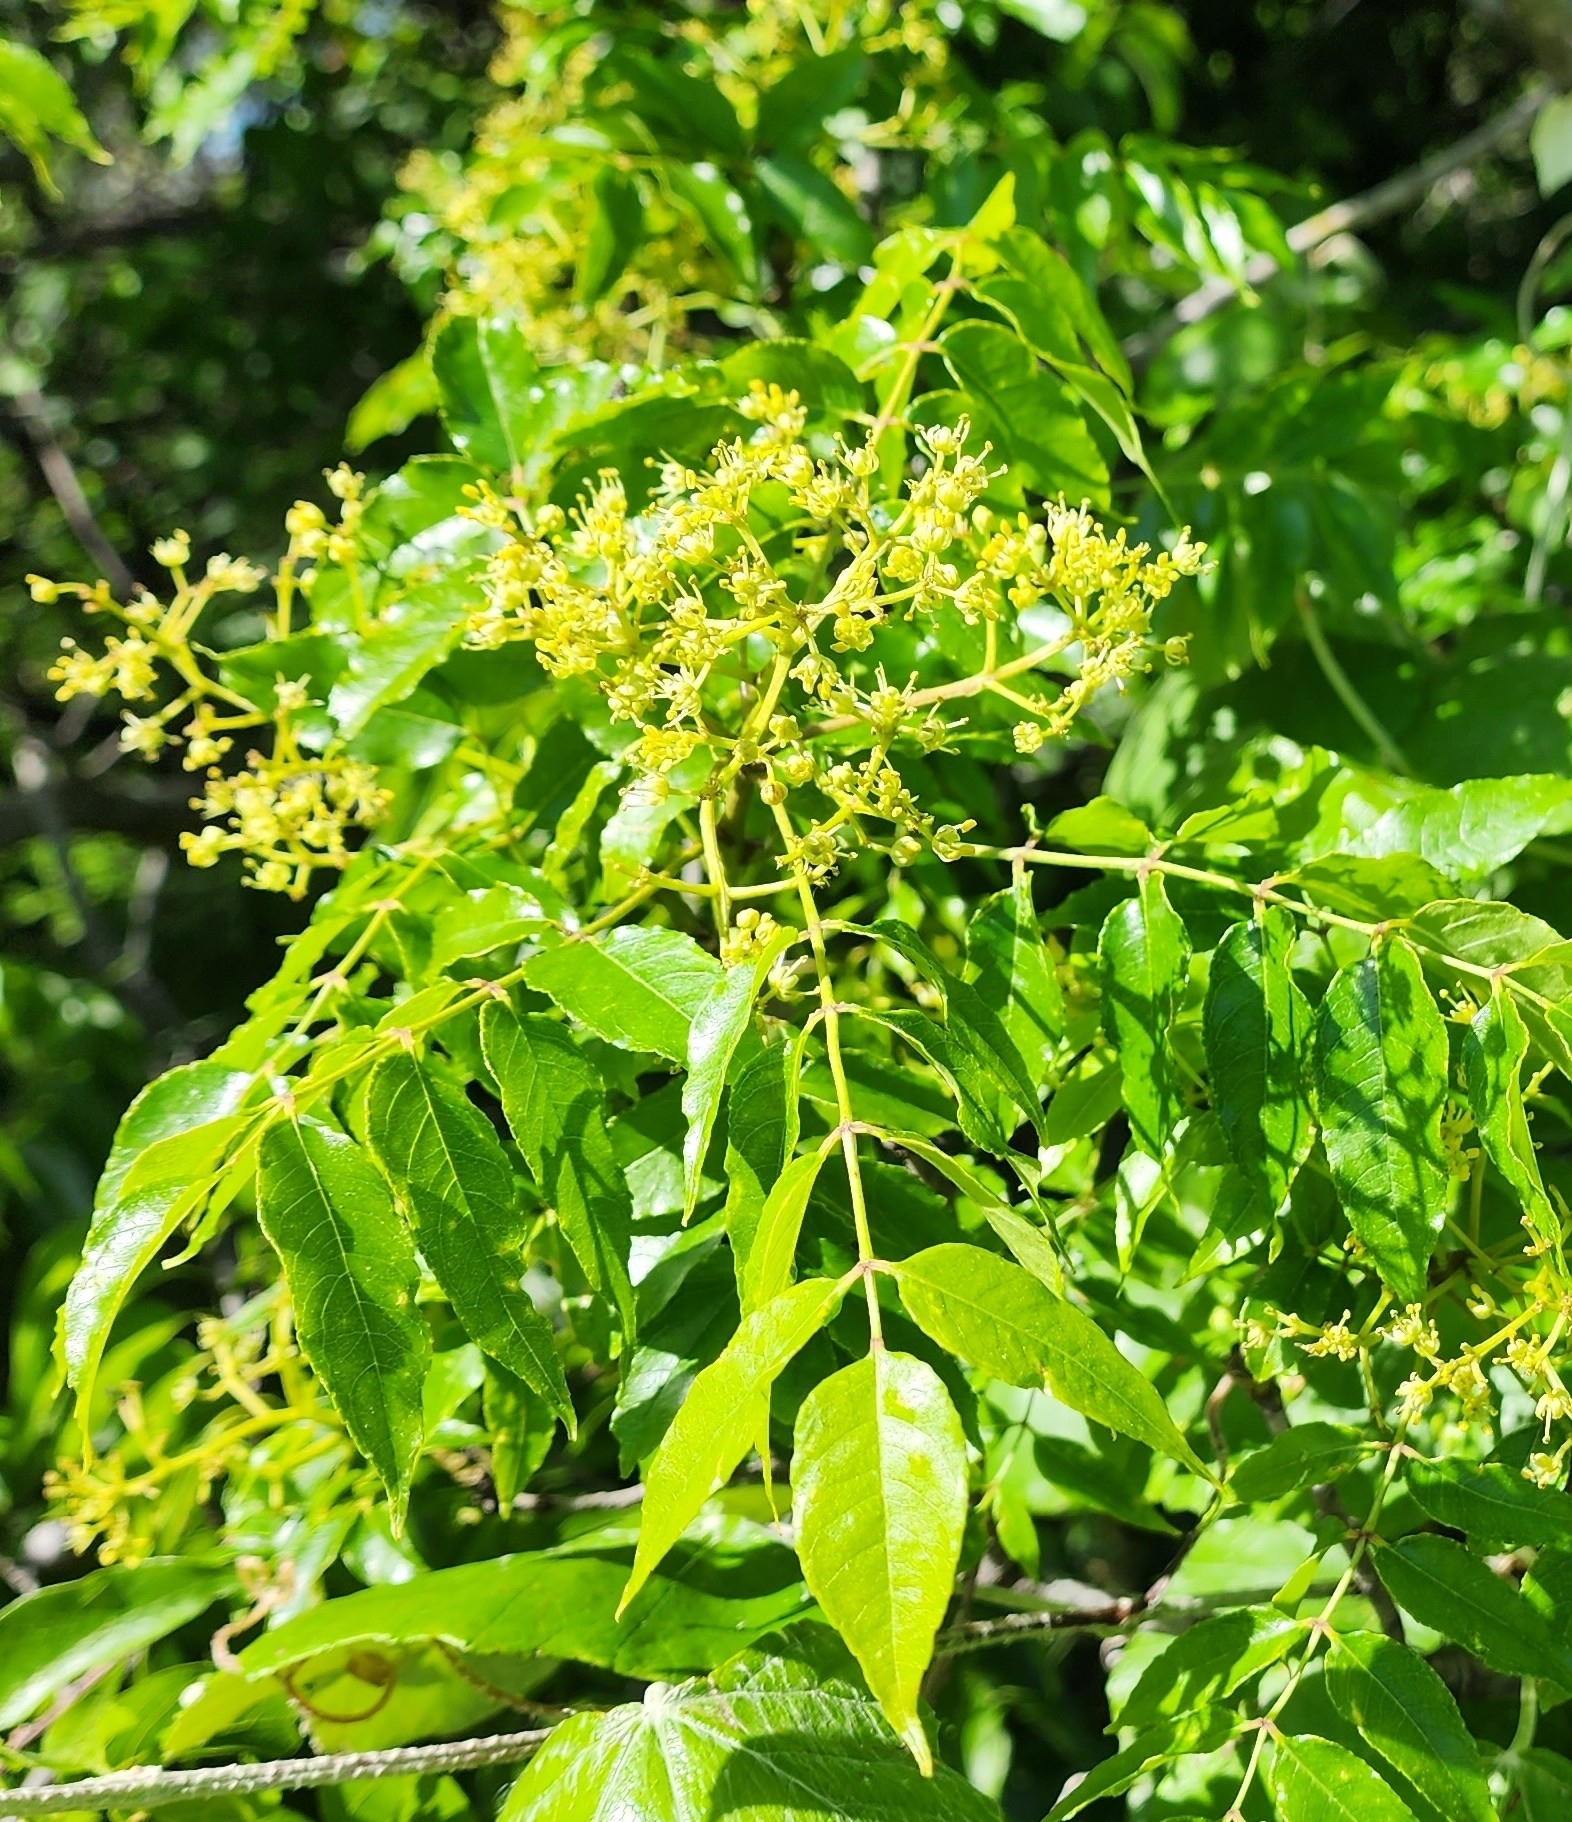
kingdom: Plantae
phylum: Tracheophyta
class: Magnoliopsida
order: Sapindales
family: Rutaceae
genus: Zanthoxylum
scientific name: Zanthoxylum clava-herculis
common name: Hercules'-club
